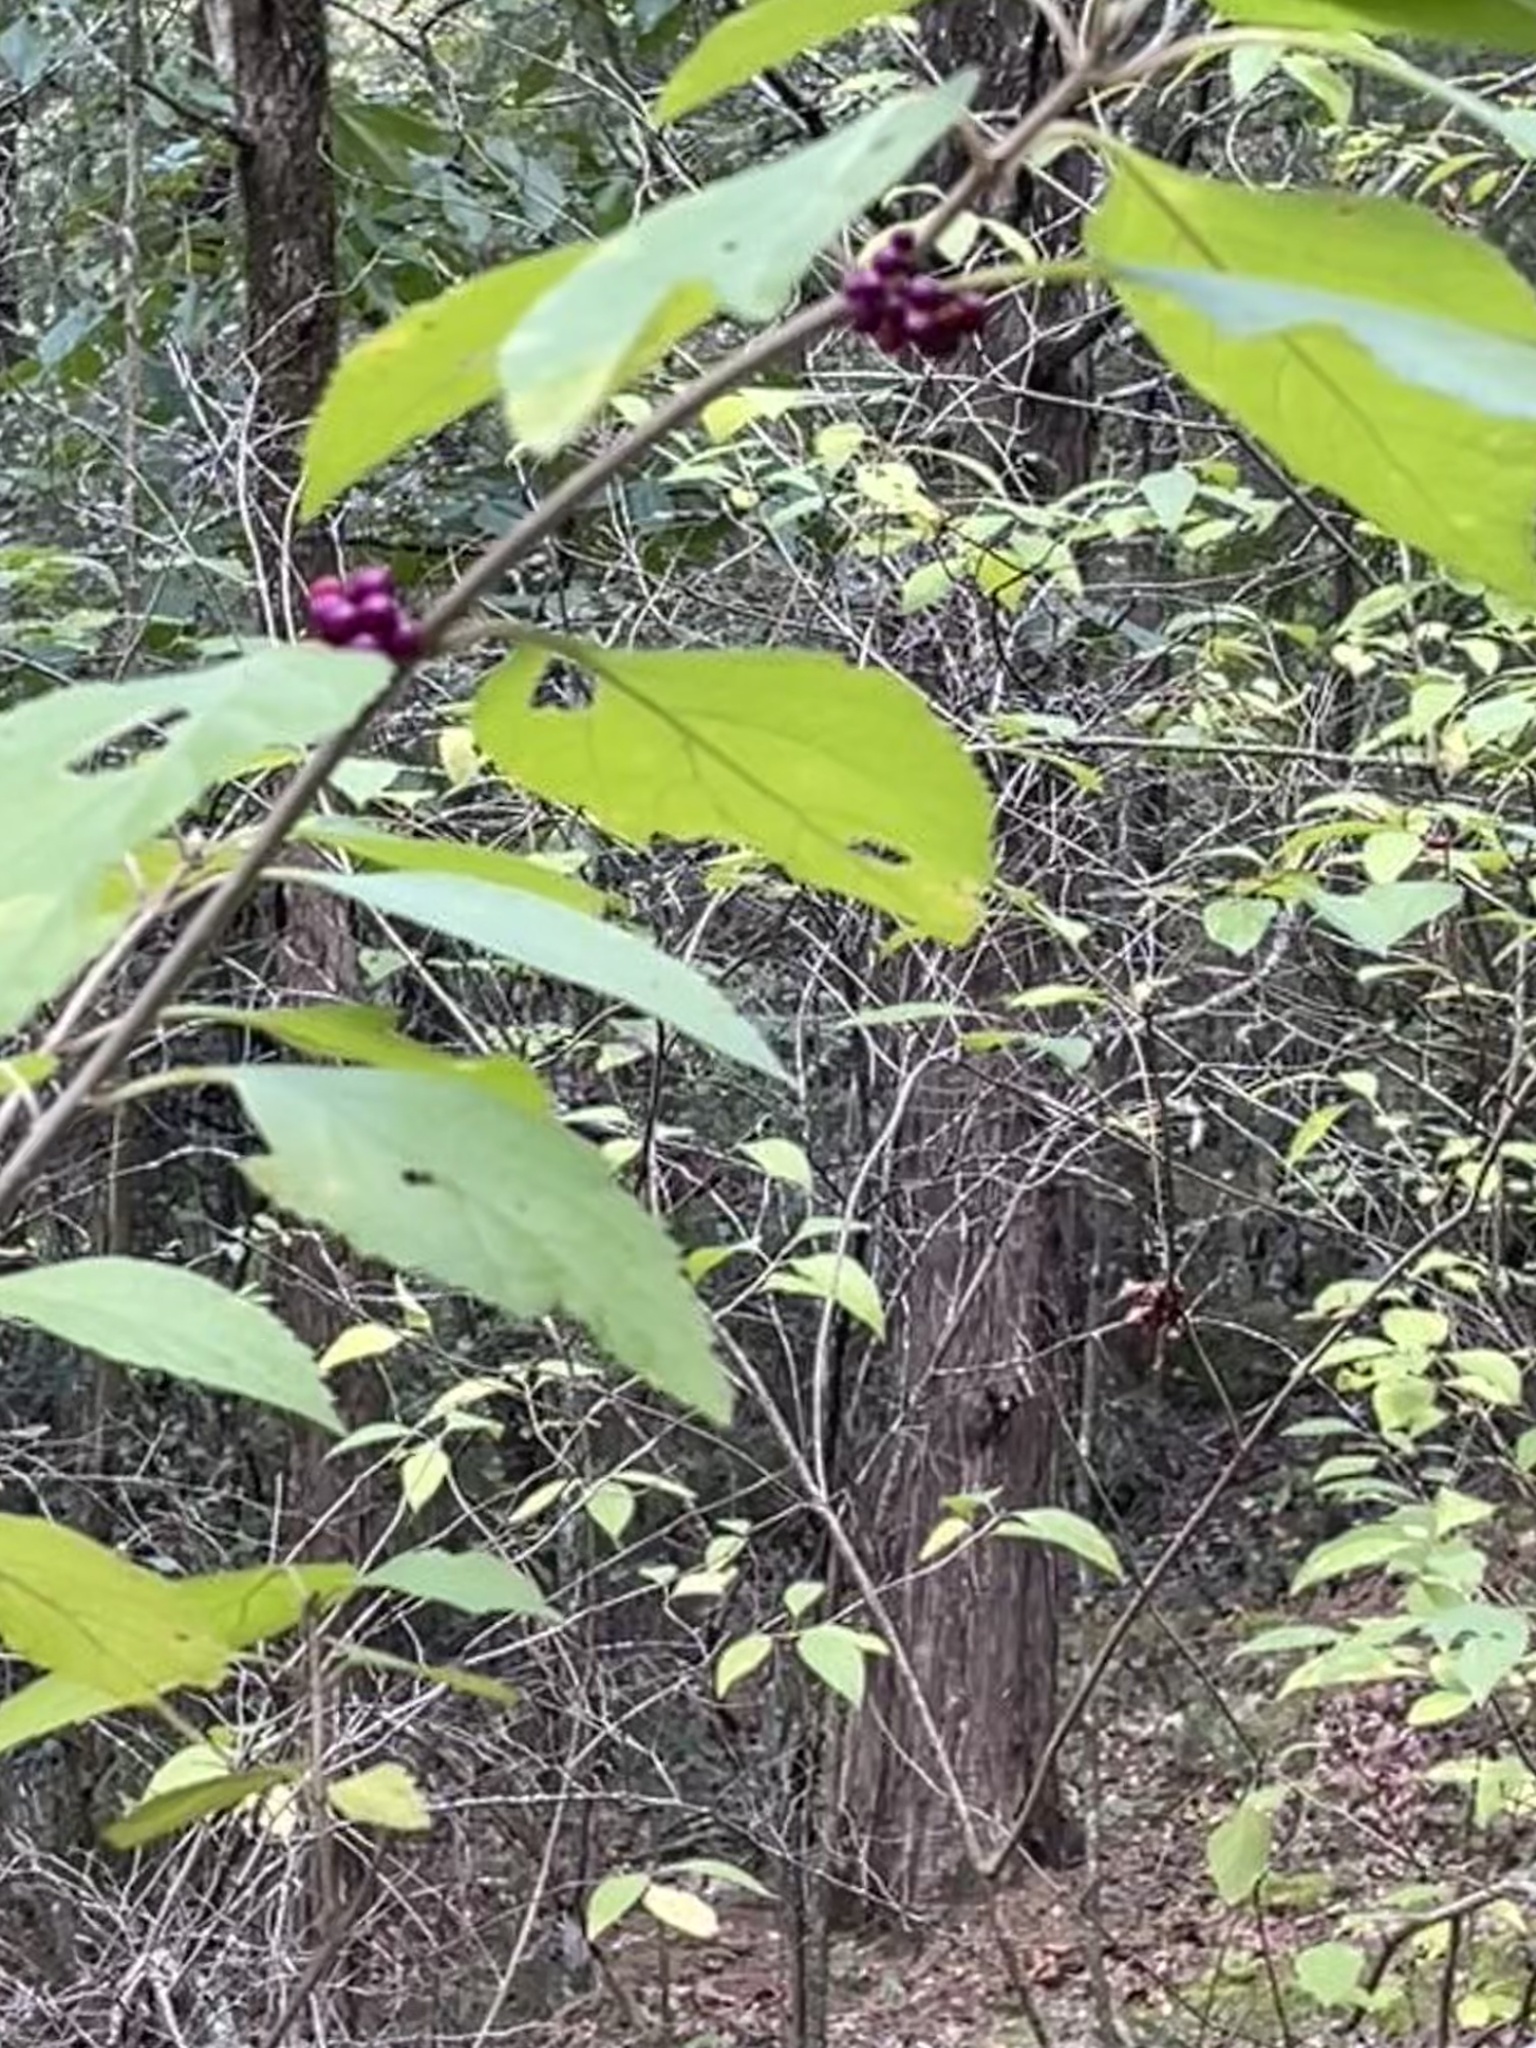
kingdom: Plantae
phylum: Tracheophyta
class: Magnoliopsida
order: Lamiales
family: Lamiaceae
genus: Callicarpa
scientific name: Callicarpa americana
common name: American beautyberry
